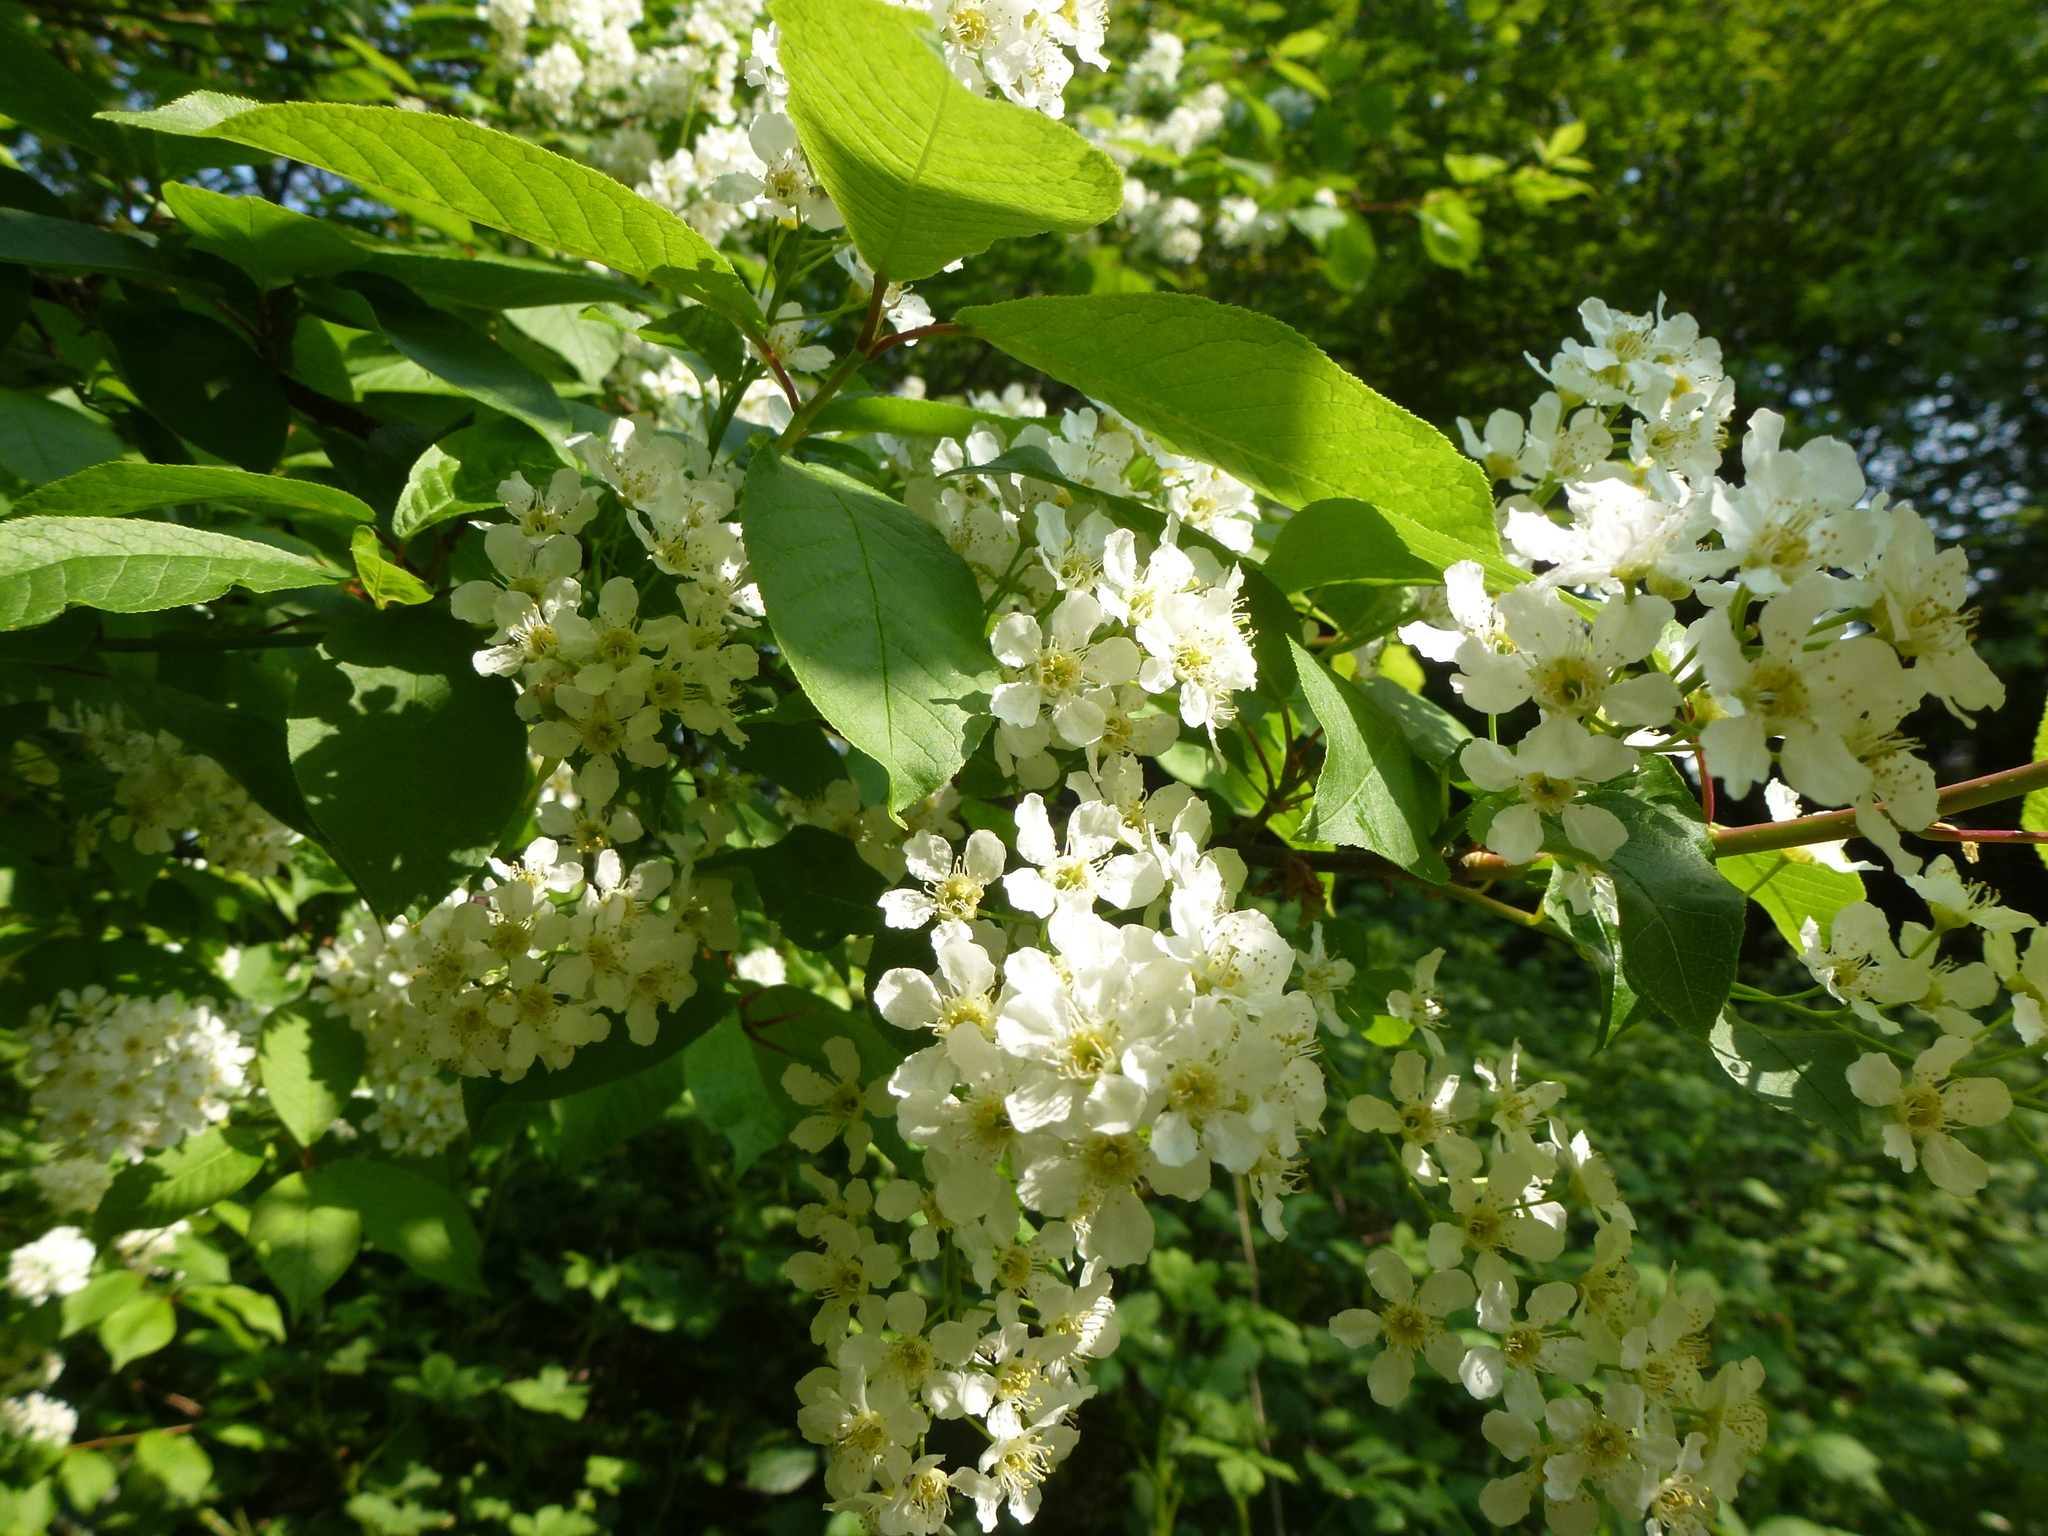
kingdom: Plantae
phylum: Tracheophyta
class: Magnoliopsida
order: Rosales
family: Rosaceae
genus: Prunus
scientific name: Prunus padus
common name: Bird cherry
